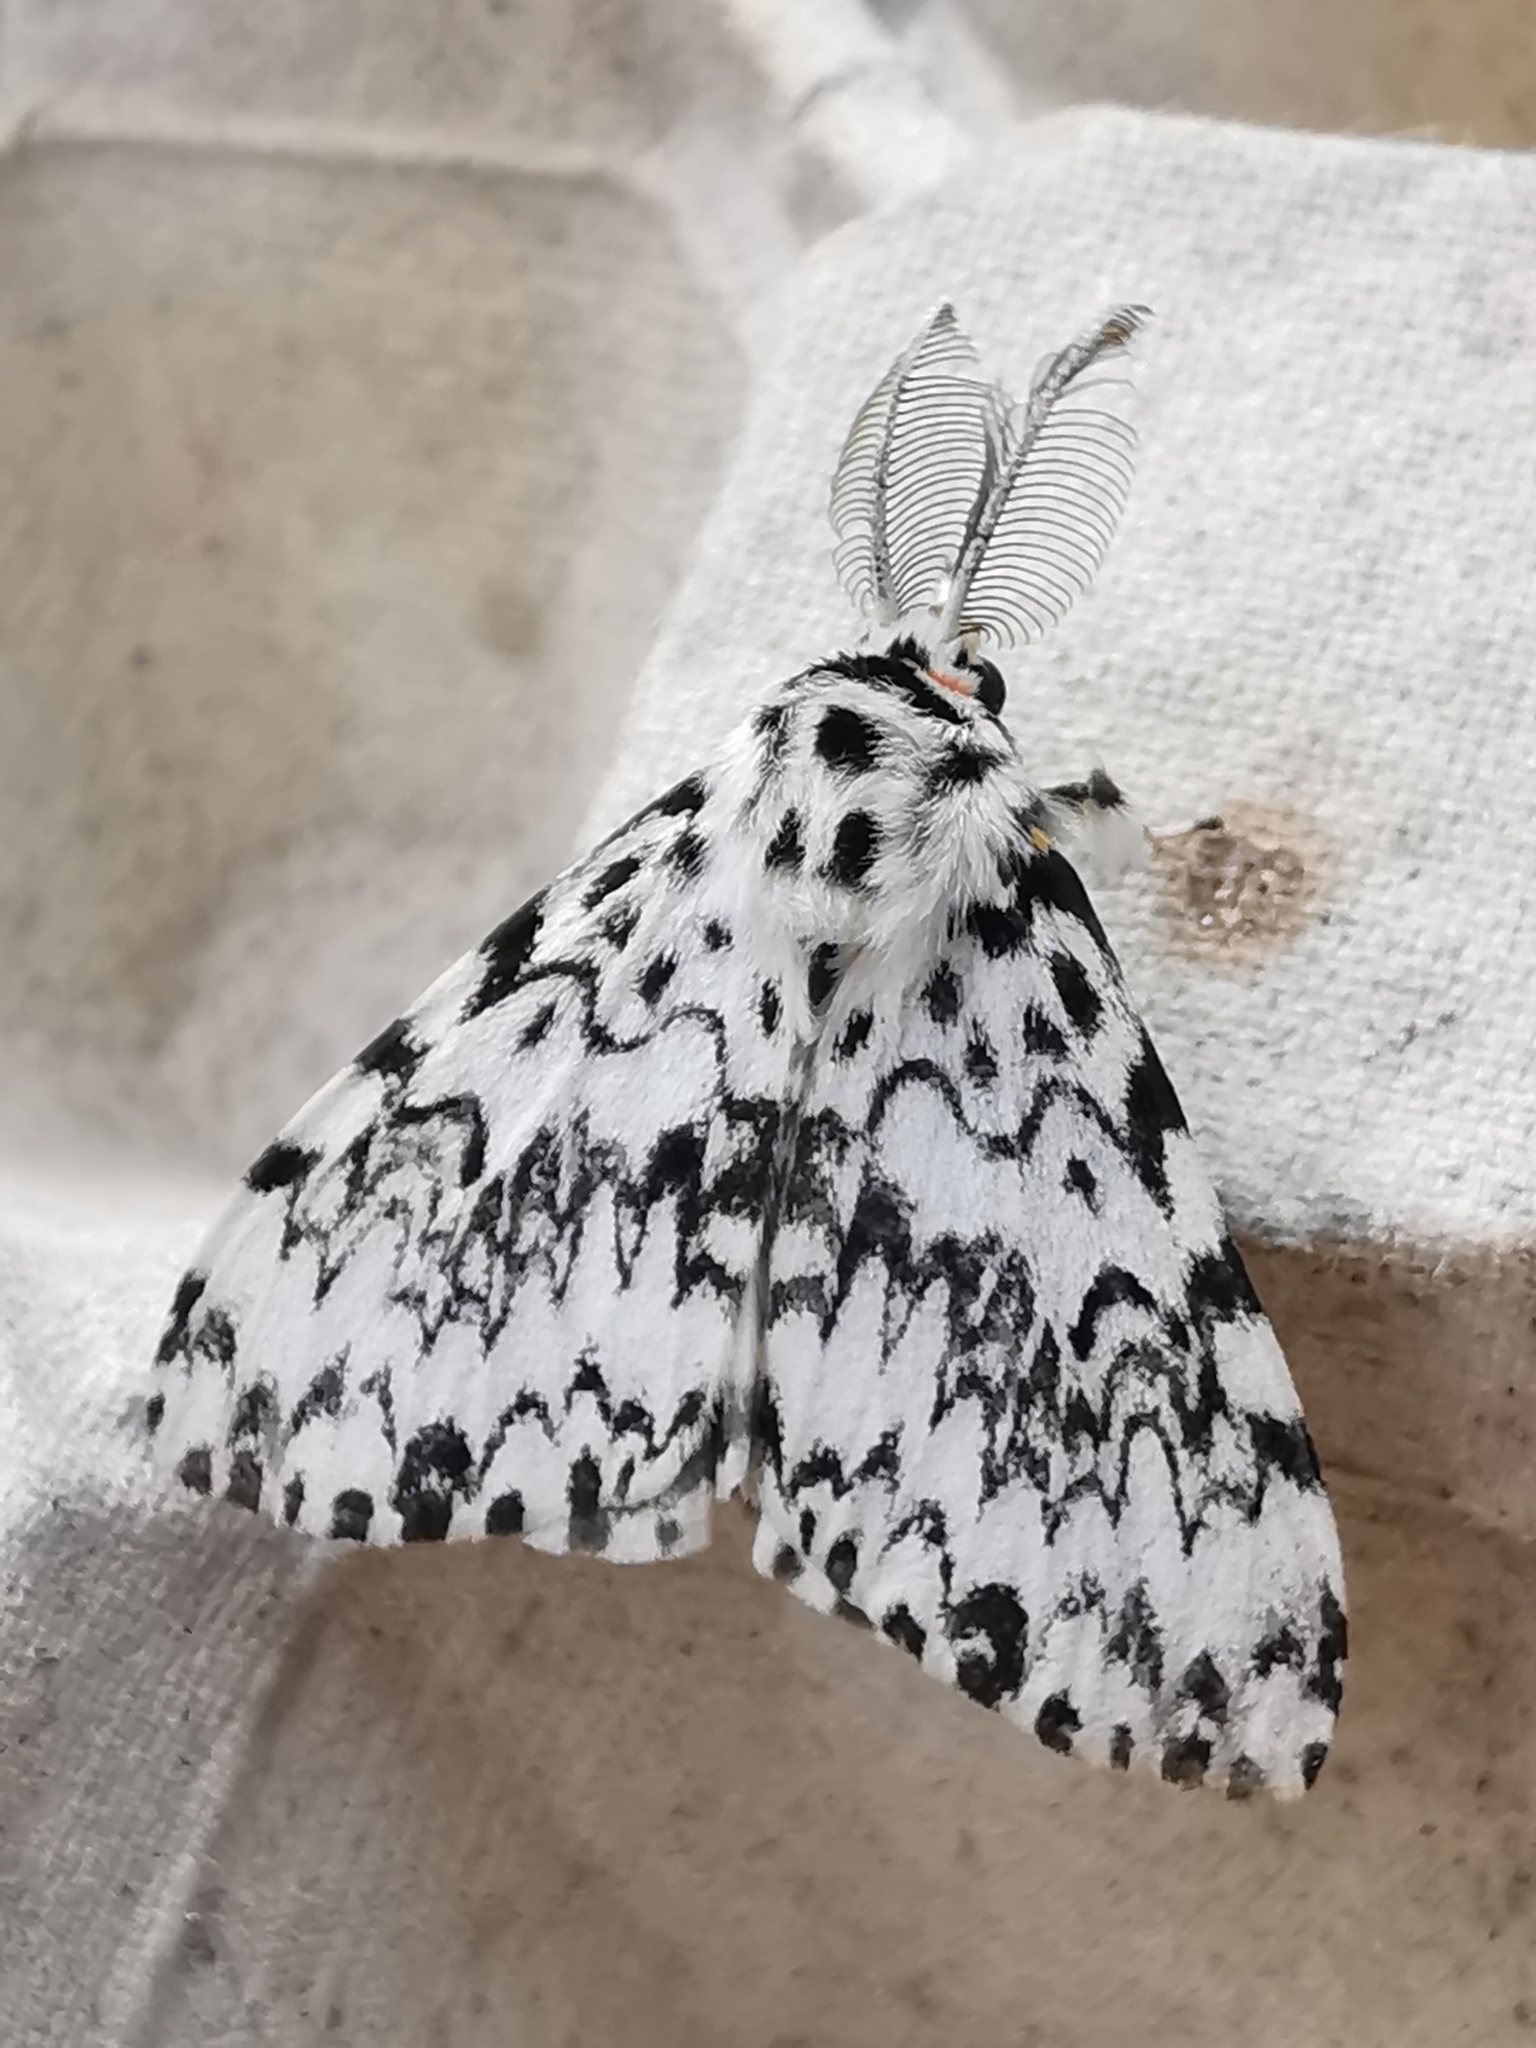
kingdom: Animalia
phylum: Arthropoda
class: Insecta
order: Lepidoptera
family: Erebidae
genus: Lymantria
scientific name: Lymantria monacha
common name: Black arches
